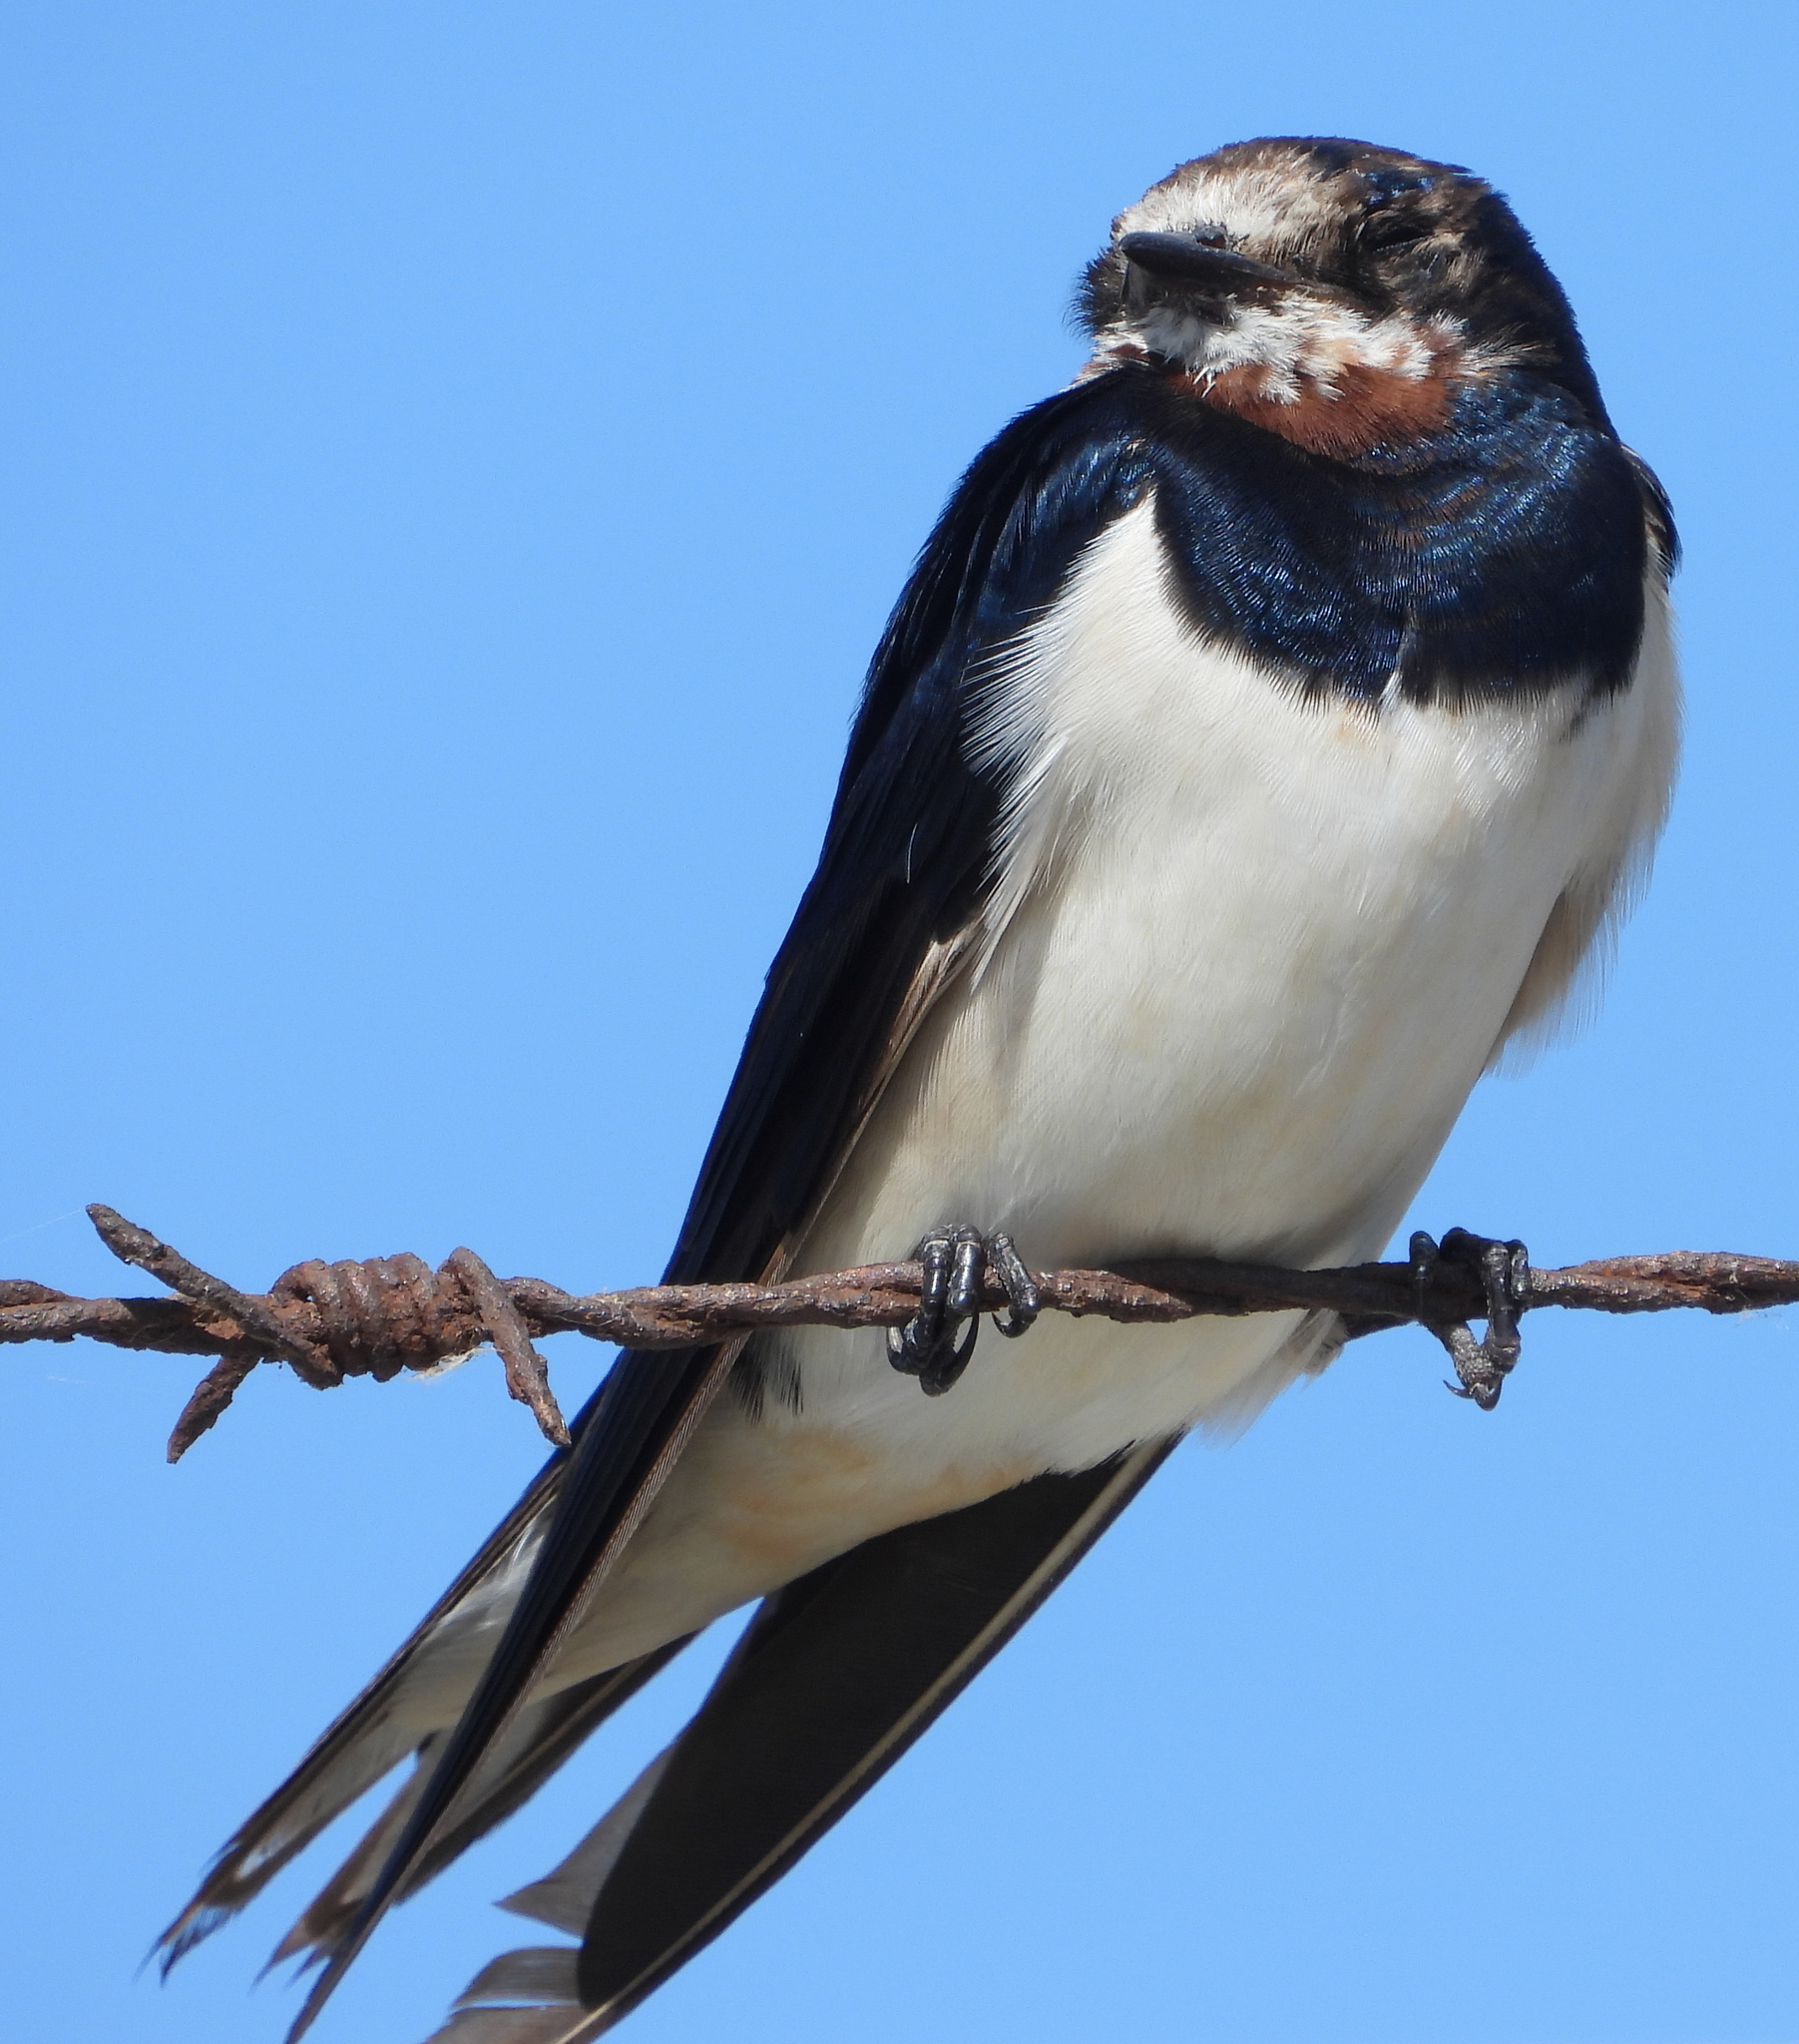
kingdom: Animalia
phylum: Chordata
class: Aves
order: Passeriformes
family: Hirundinidae
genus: Hirundo
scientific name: Hirundo rustica
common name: Barn swallow
